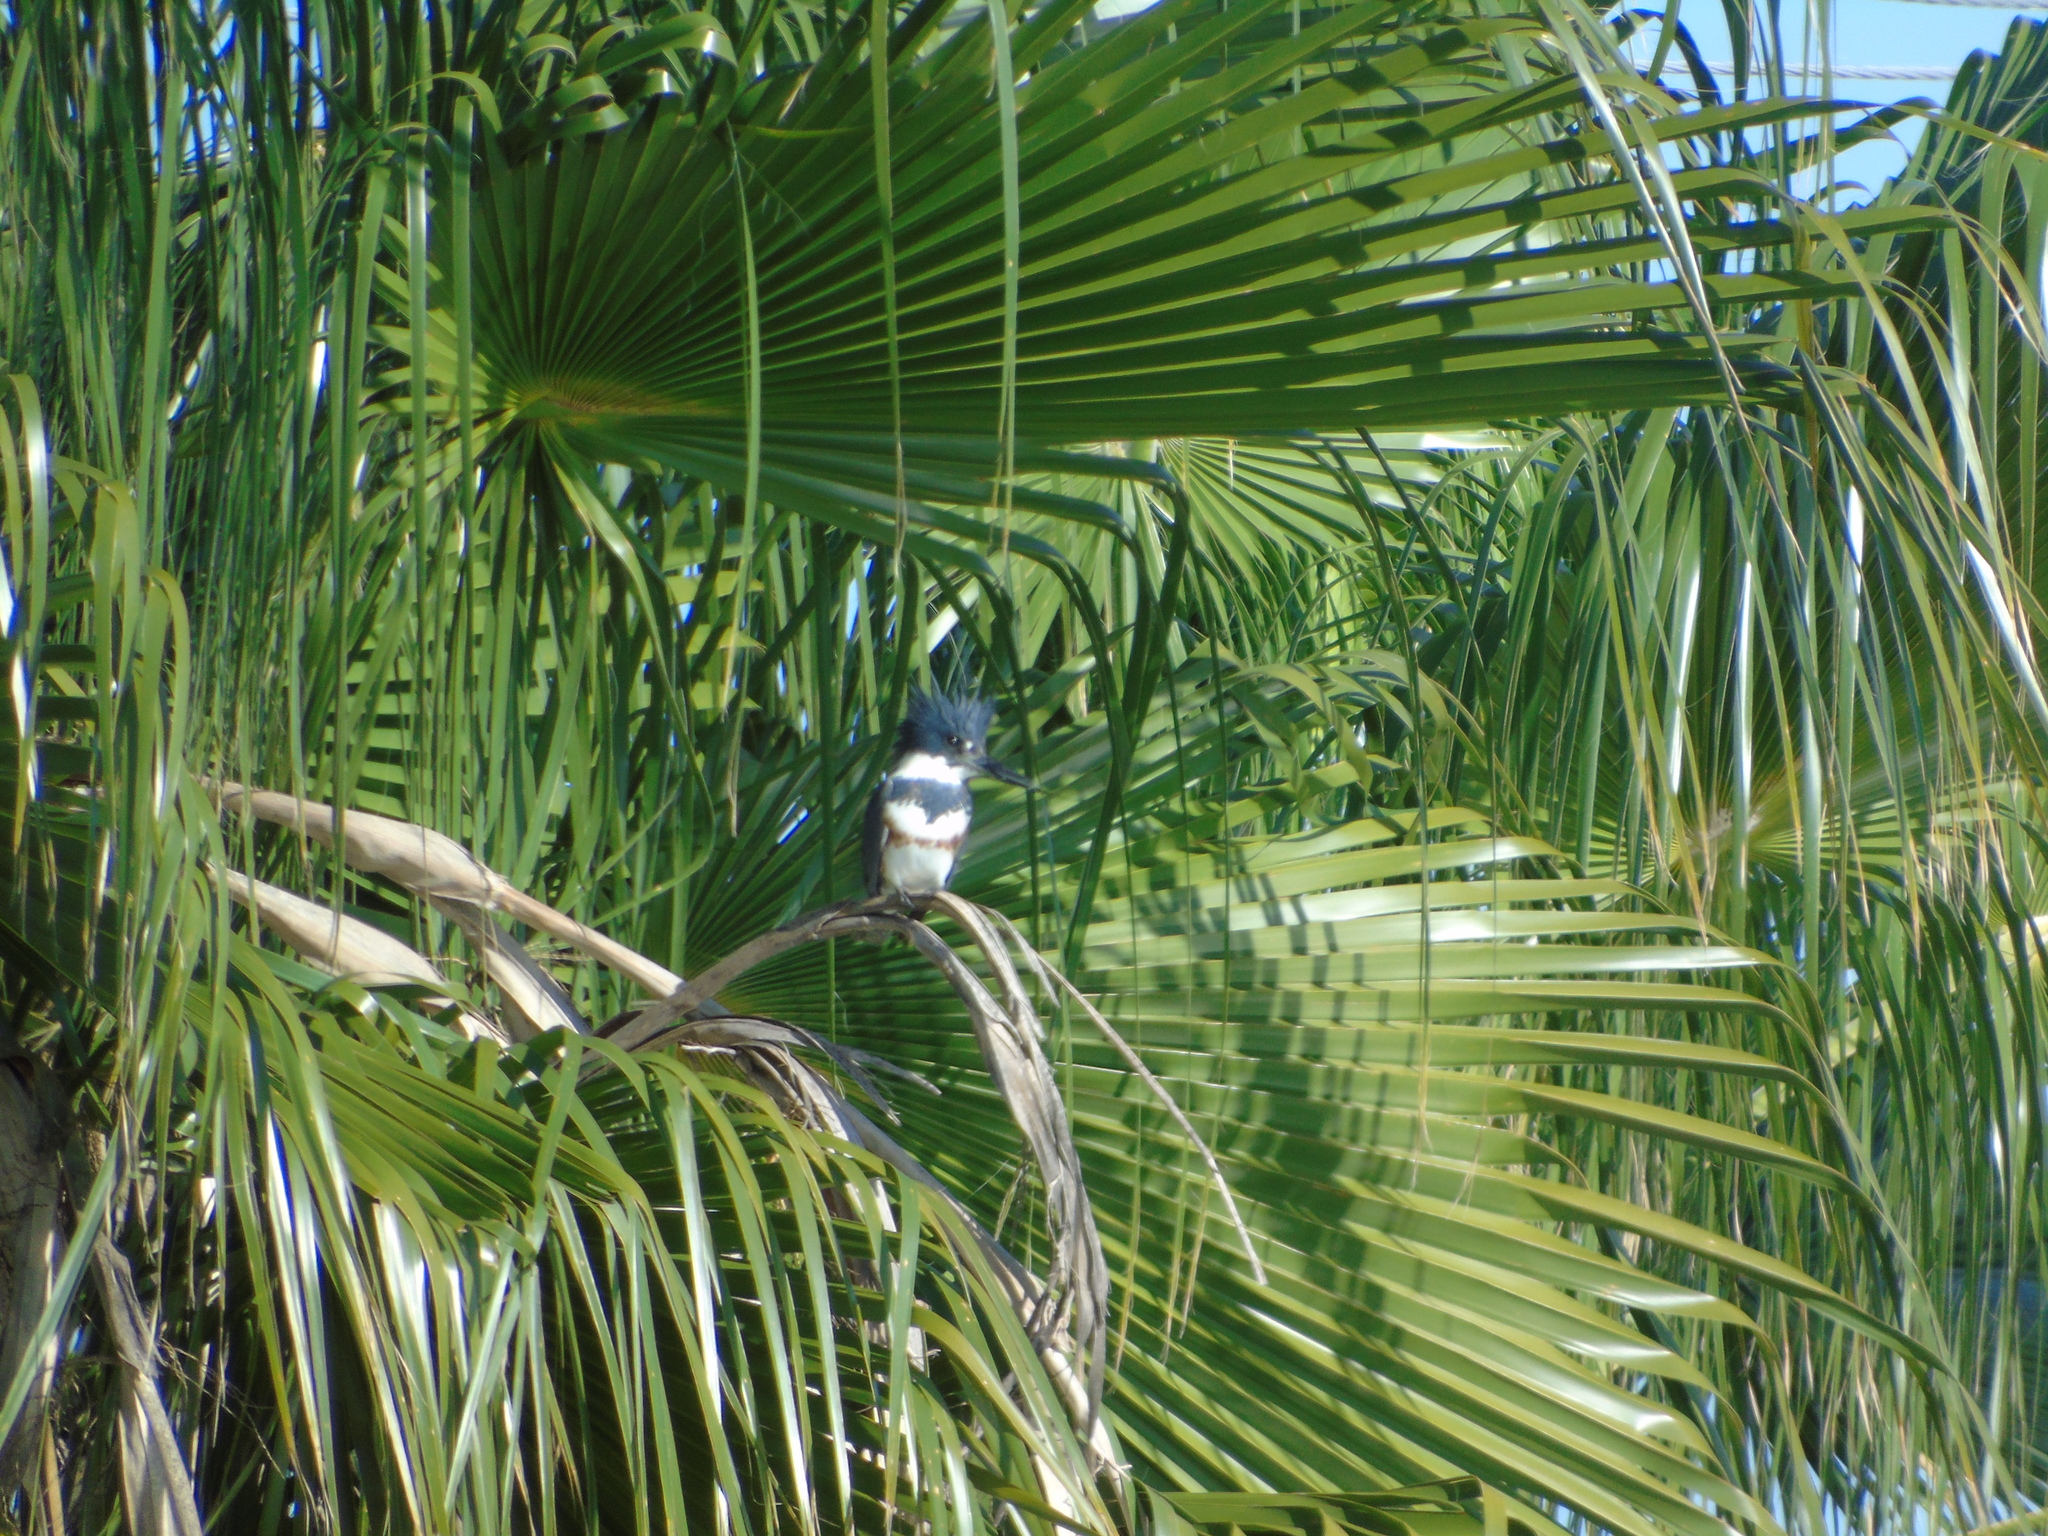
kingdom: Animalia
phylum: Chordata
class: Aves
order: Coraciiformes
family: Alcedinidae
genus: Megaceryle
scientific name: Megaceryle alcyon
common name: Belted kingfisher
